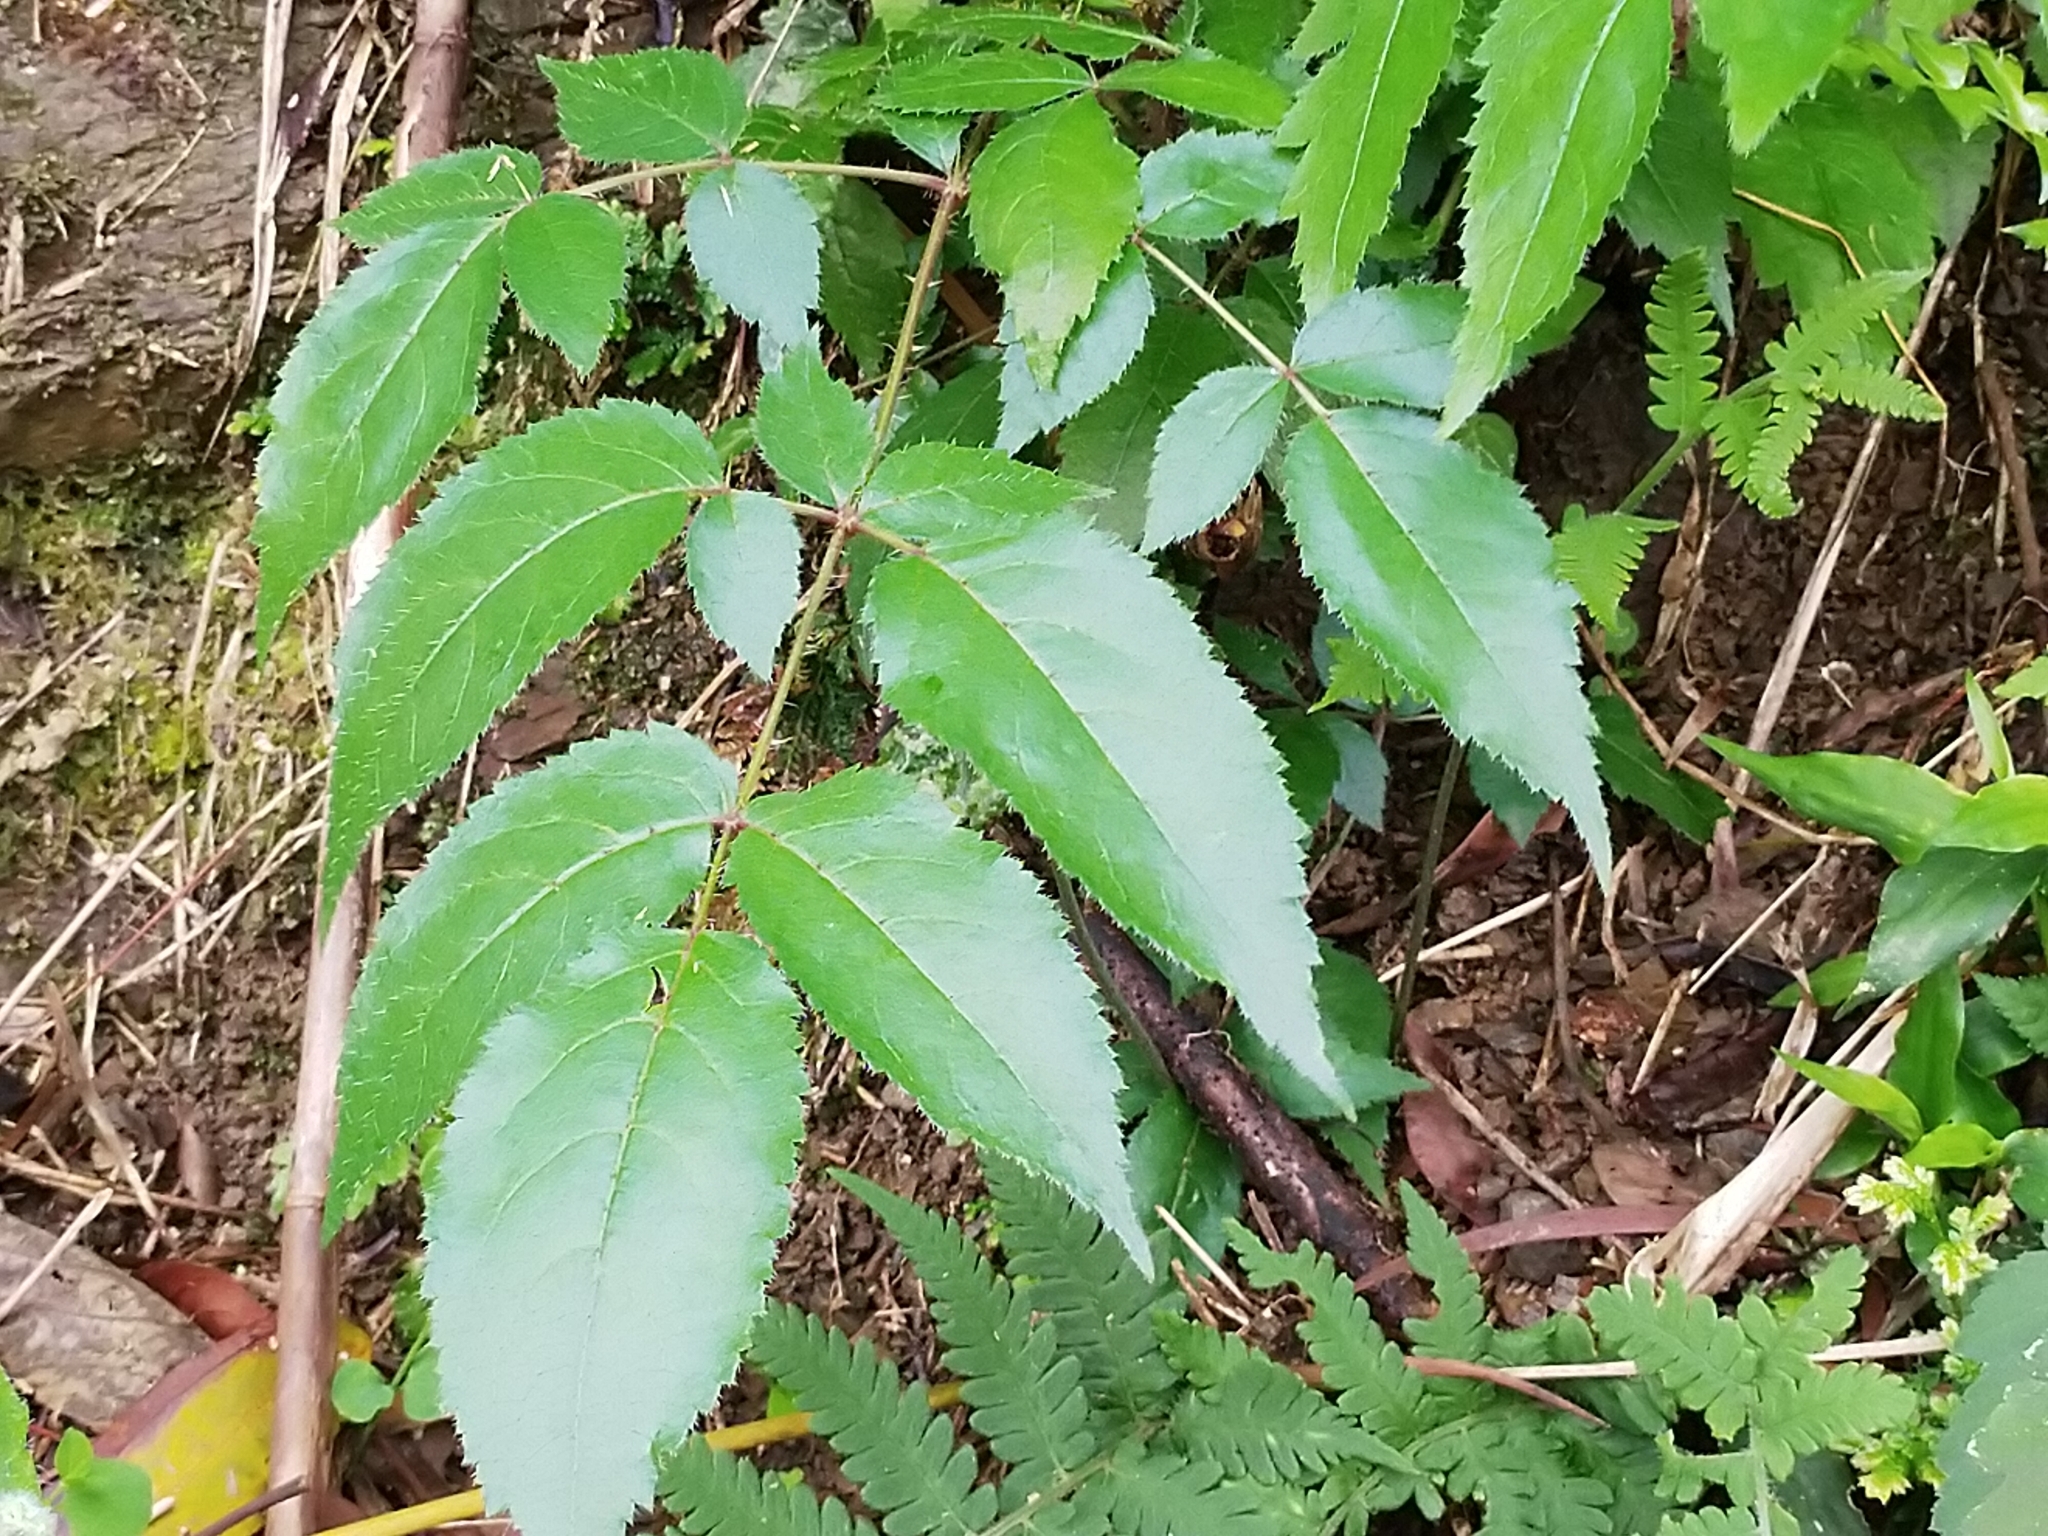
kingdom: Plantae
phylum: Tracheophyta
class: Magnoliopsida
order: Apiales
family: Araliaceae
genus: Aralia
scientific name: Aralia armata
